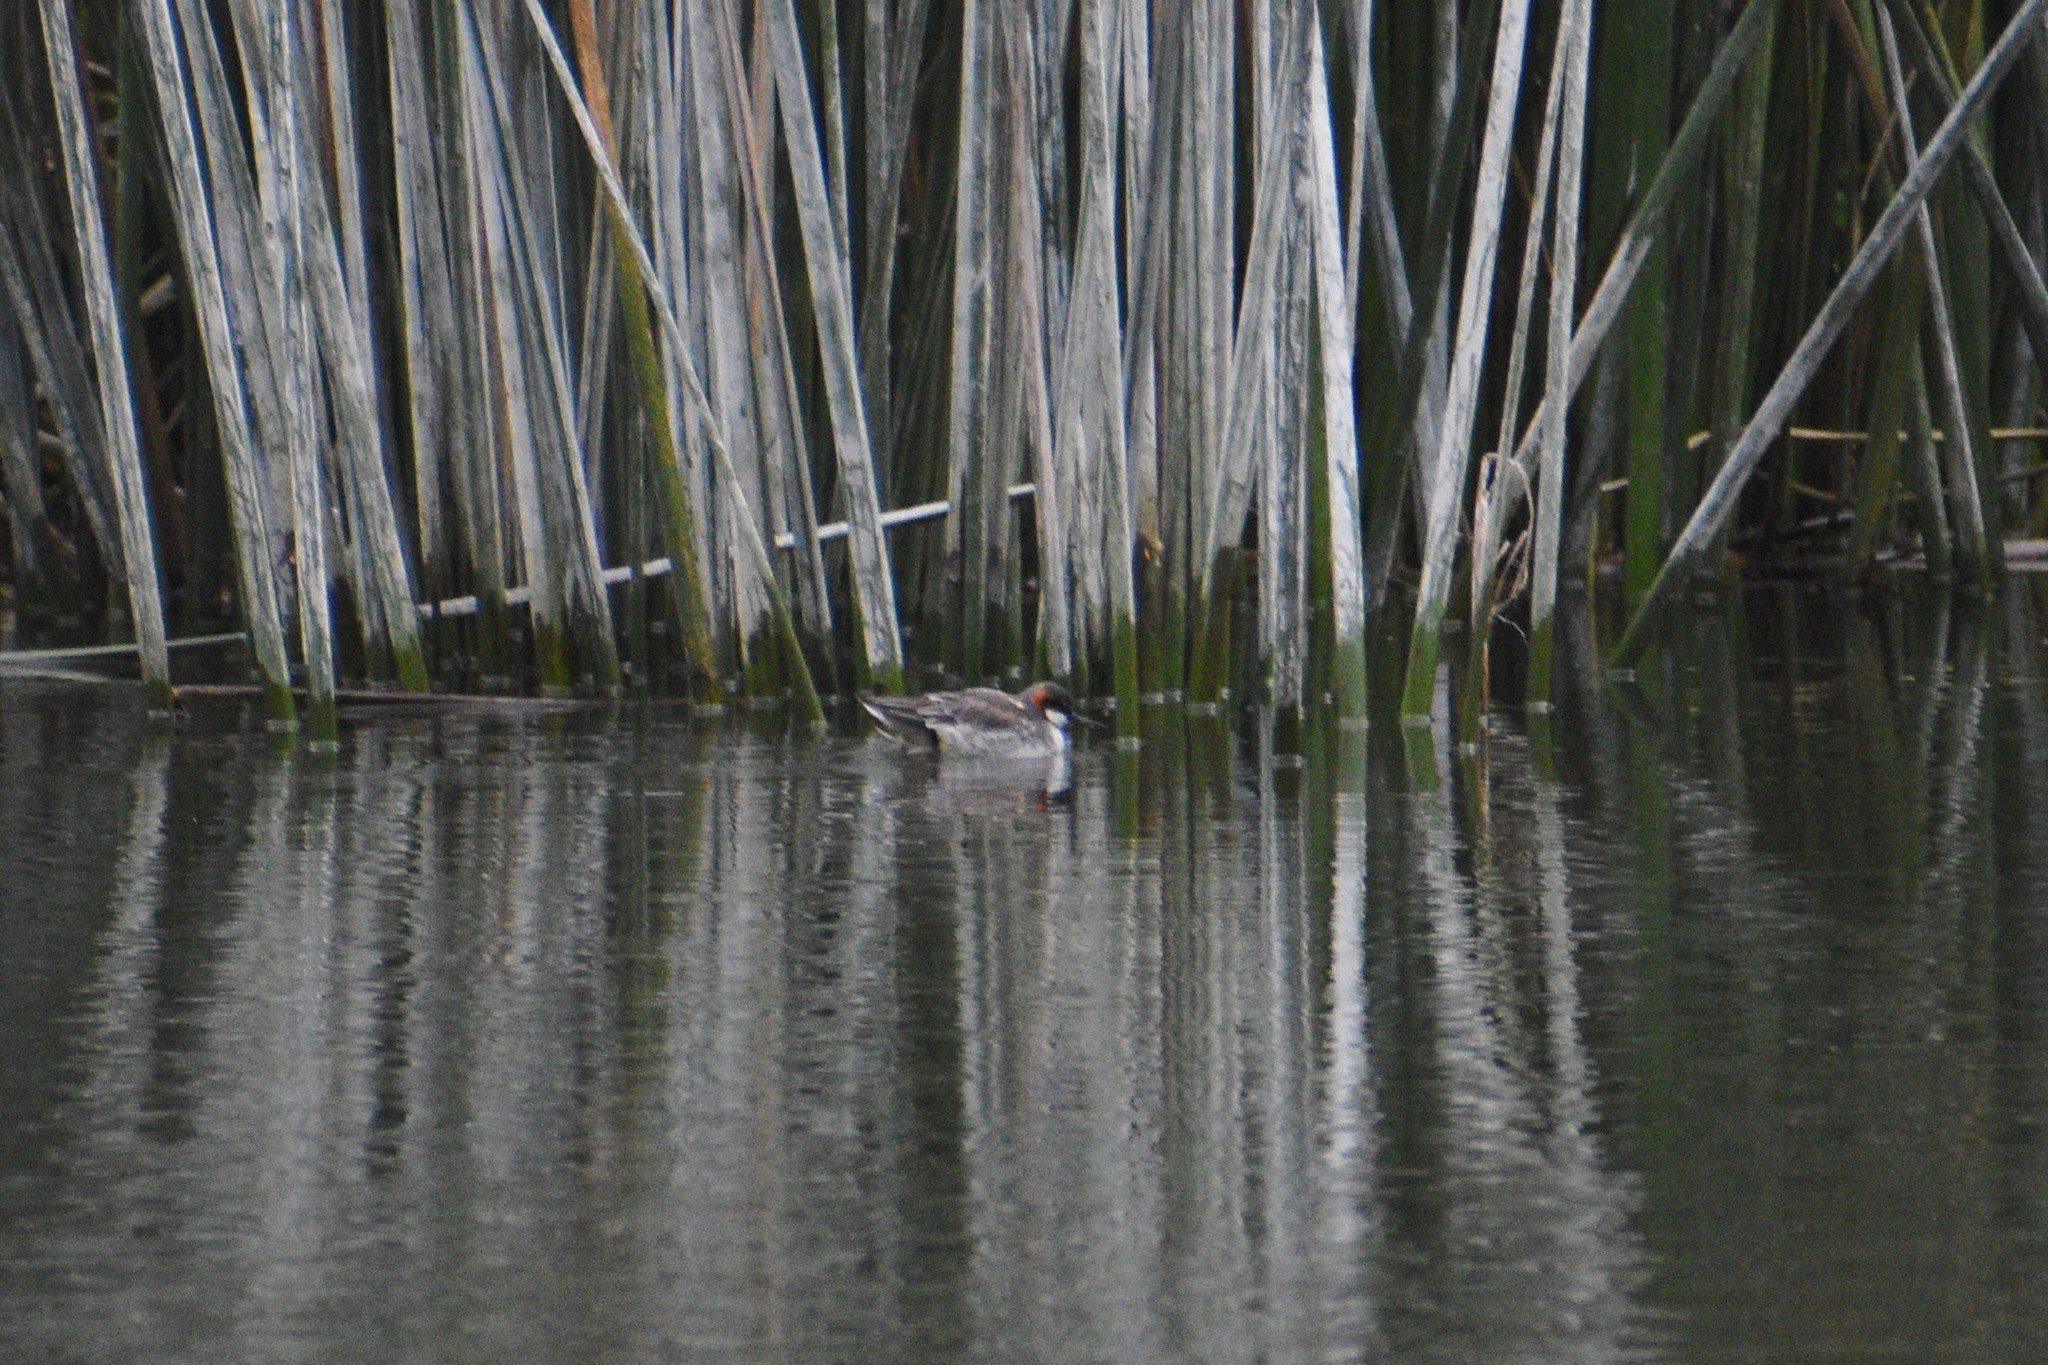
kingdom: Animalia
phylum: Chordata
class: Aves
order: Charadriiformes
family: Scolopacidae
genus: Phalaropus
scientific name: Phalaropus lobatus
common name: Red-necked phalarope
